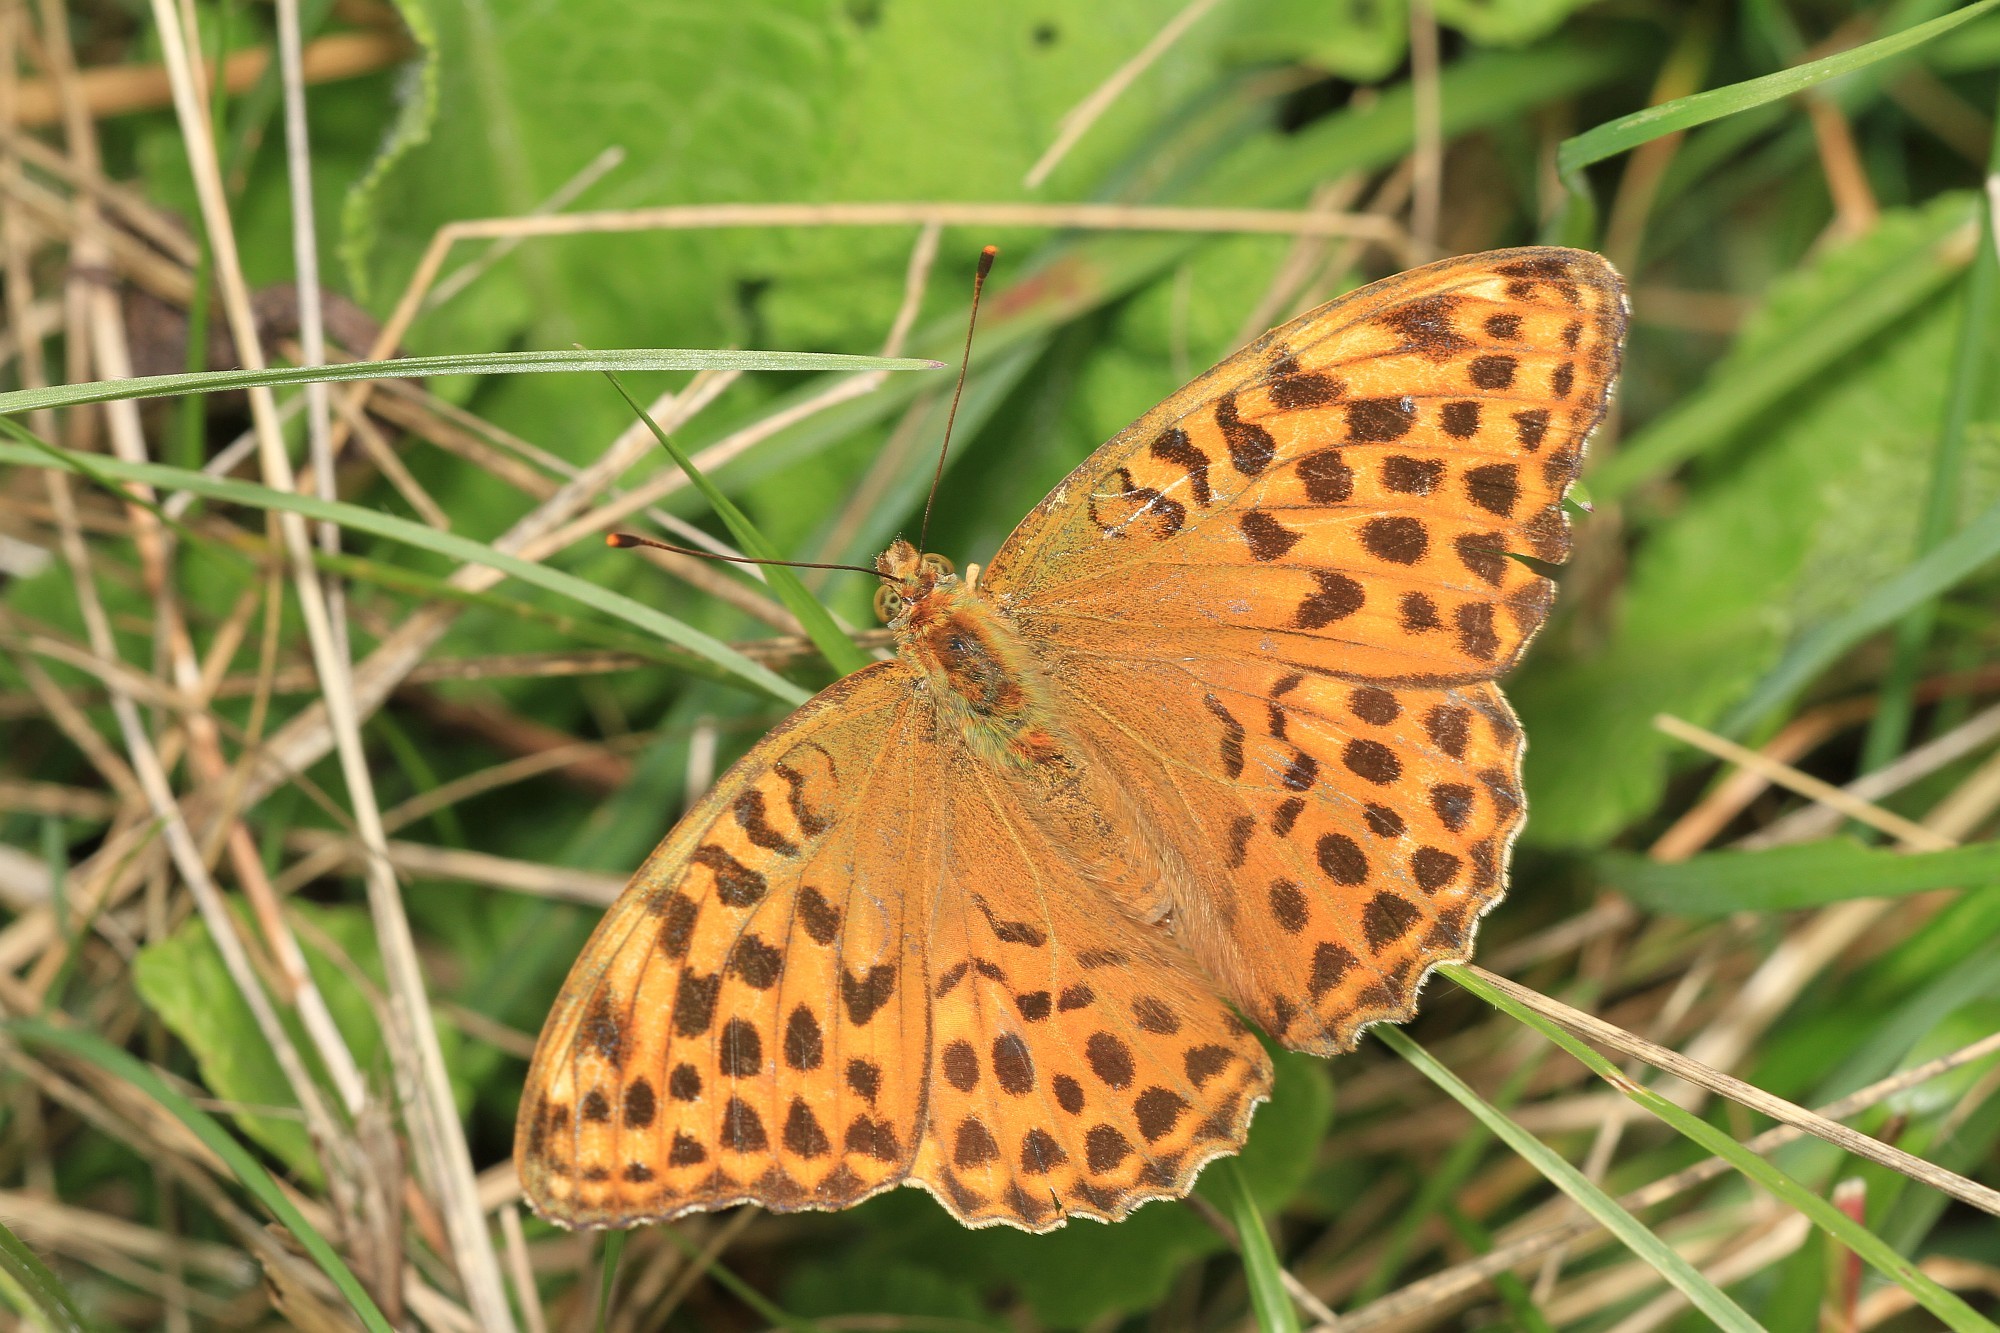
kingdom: Animalia
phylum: Arthropoda
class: Insecta
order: Lepidoptera
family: Nymphalidae
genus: Argynnis
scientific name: Argynnis paphia
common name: Silver-washed fritillary
